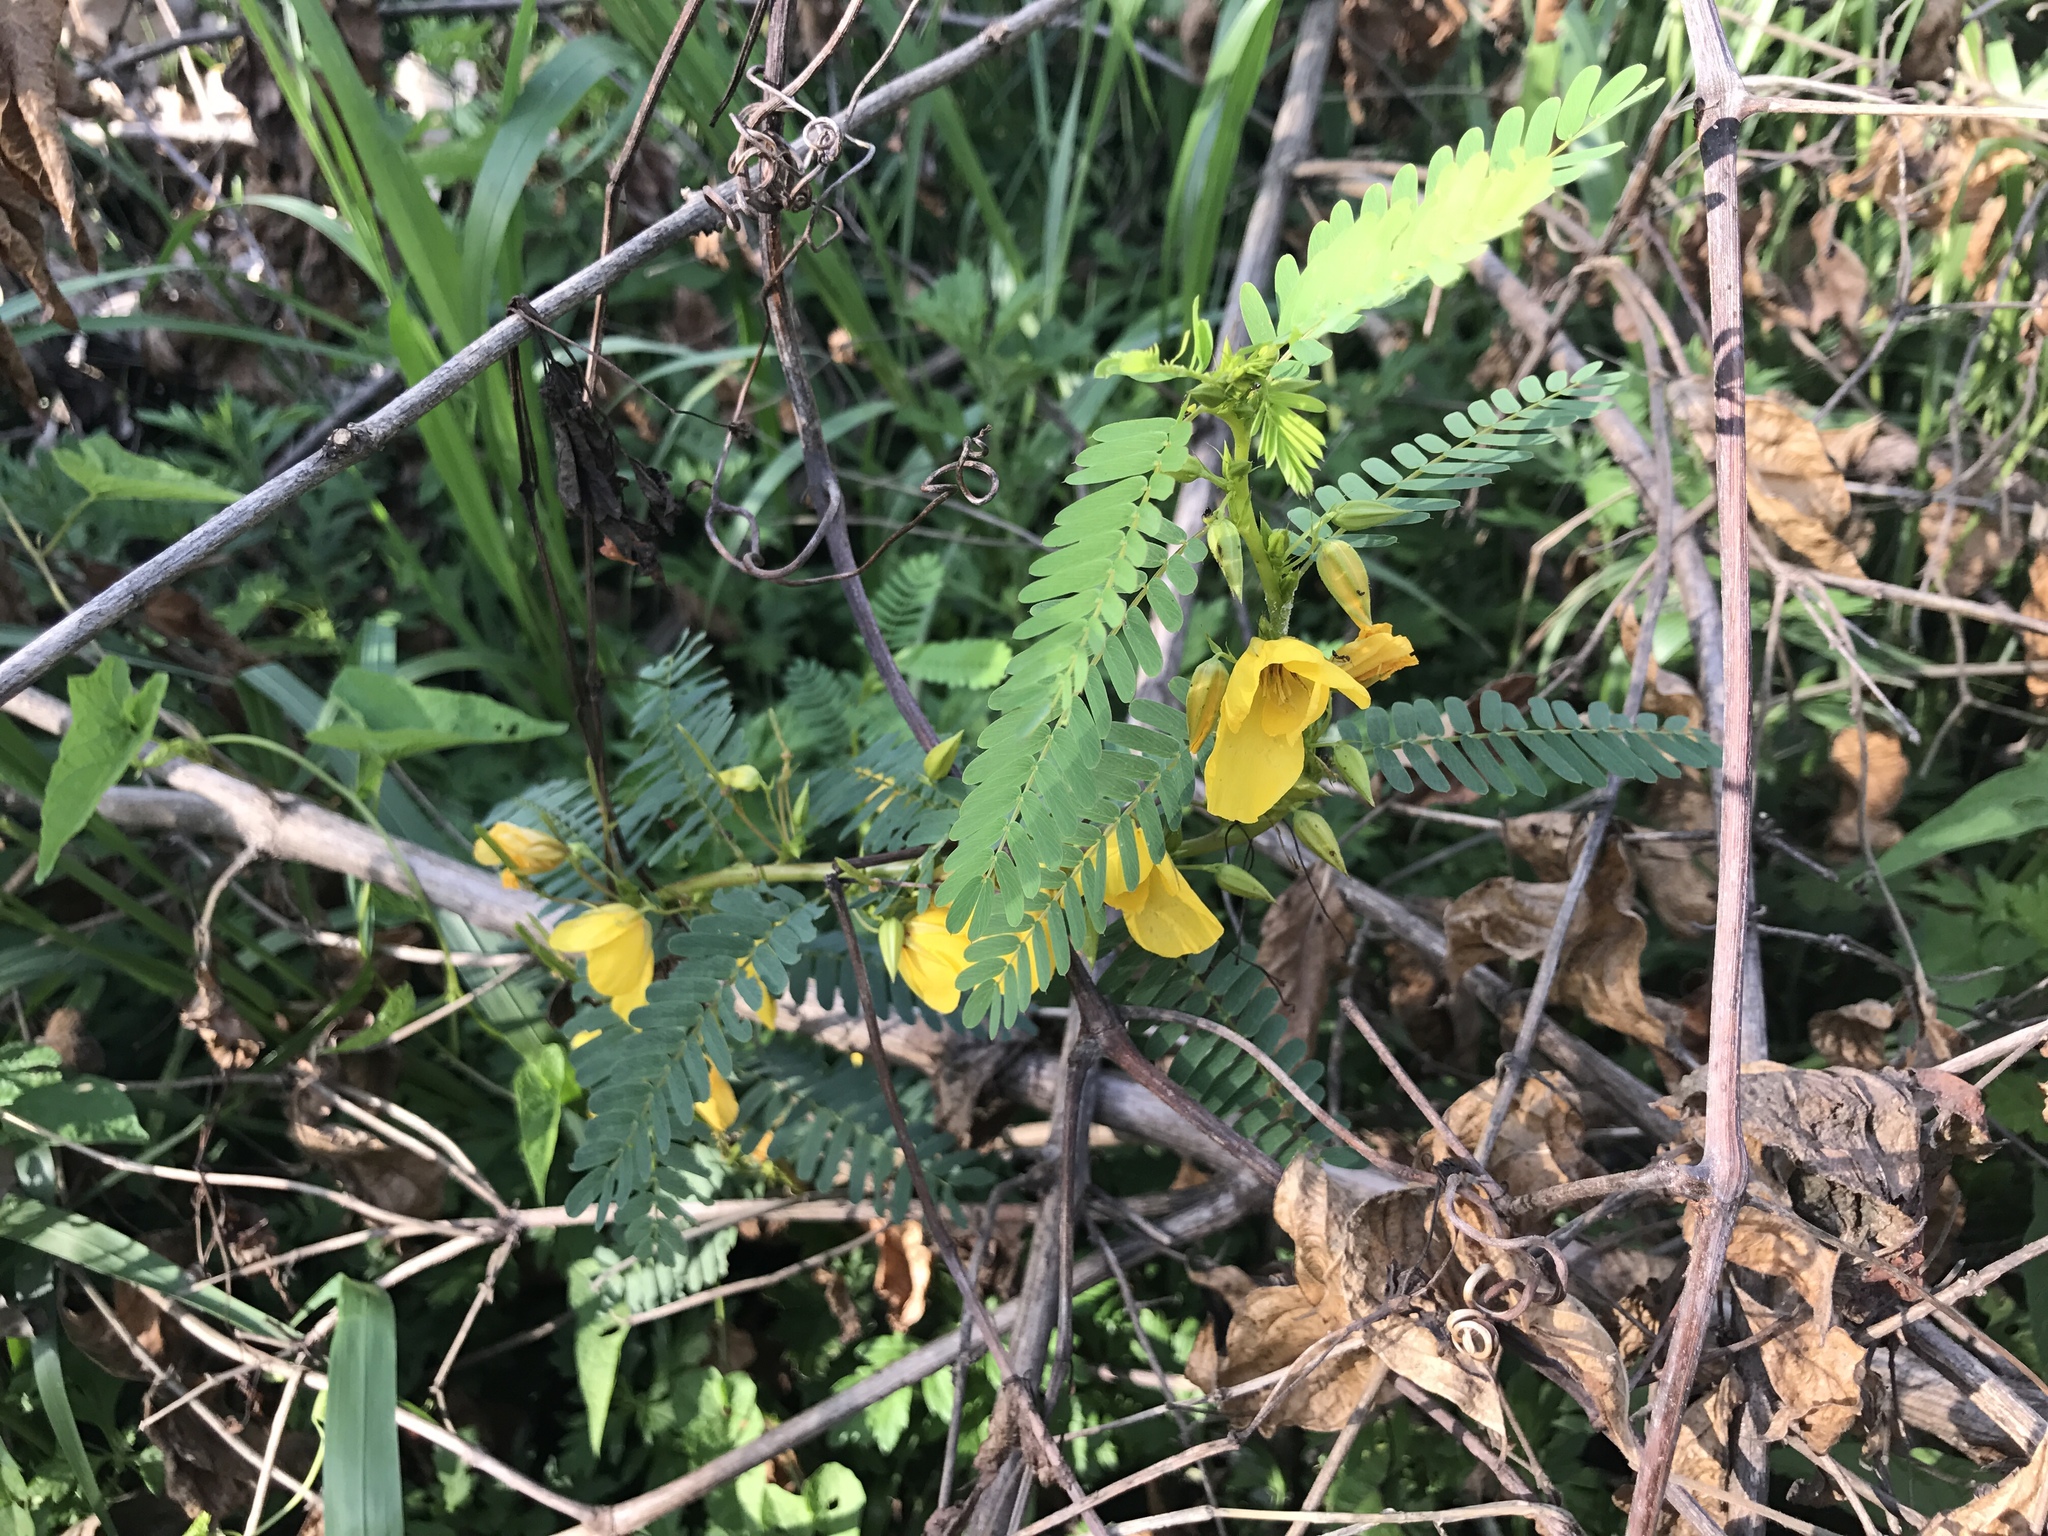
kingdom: Plantae
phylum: Tracheophyta
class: Magnoliopsida
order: Fabales
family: Fabaceae
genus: Chamaecrista
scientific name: Chamaecrista fasciculata
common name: Golden cassia
